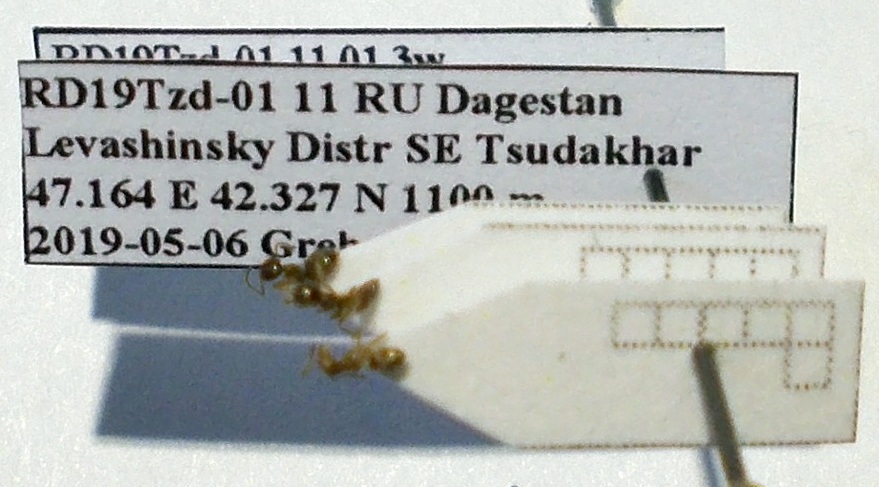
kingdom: Animalia
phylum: Arthropoda
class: Insecta
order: Hymenoptera
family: Formicidae
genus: Tapinoma
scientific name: Tapinoma emeryanum
